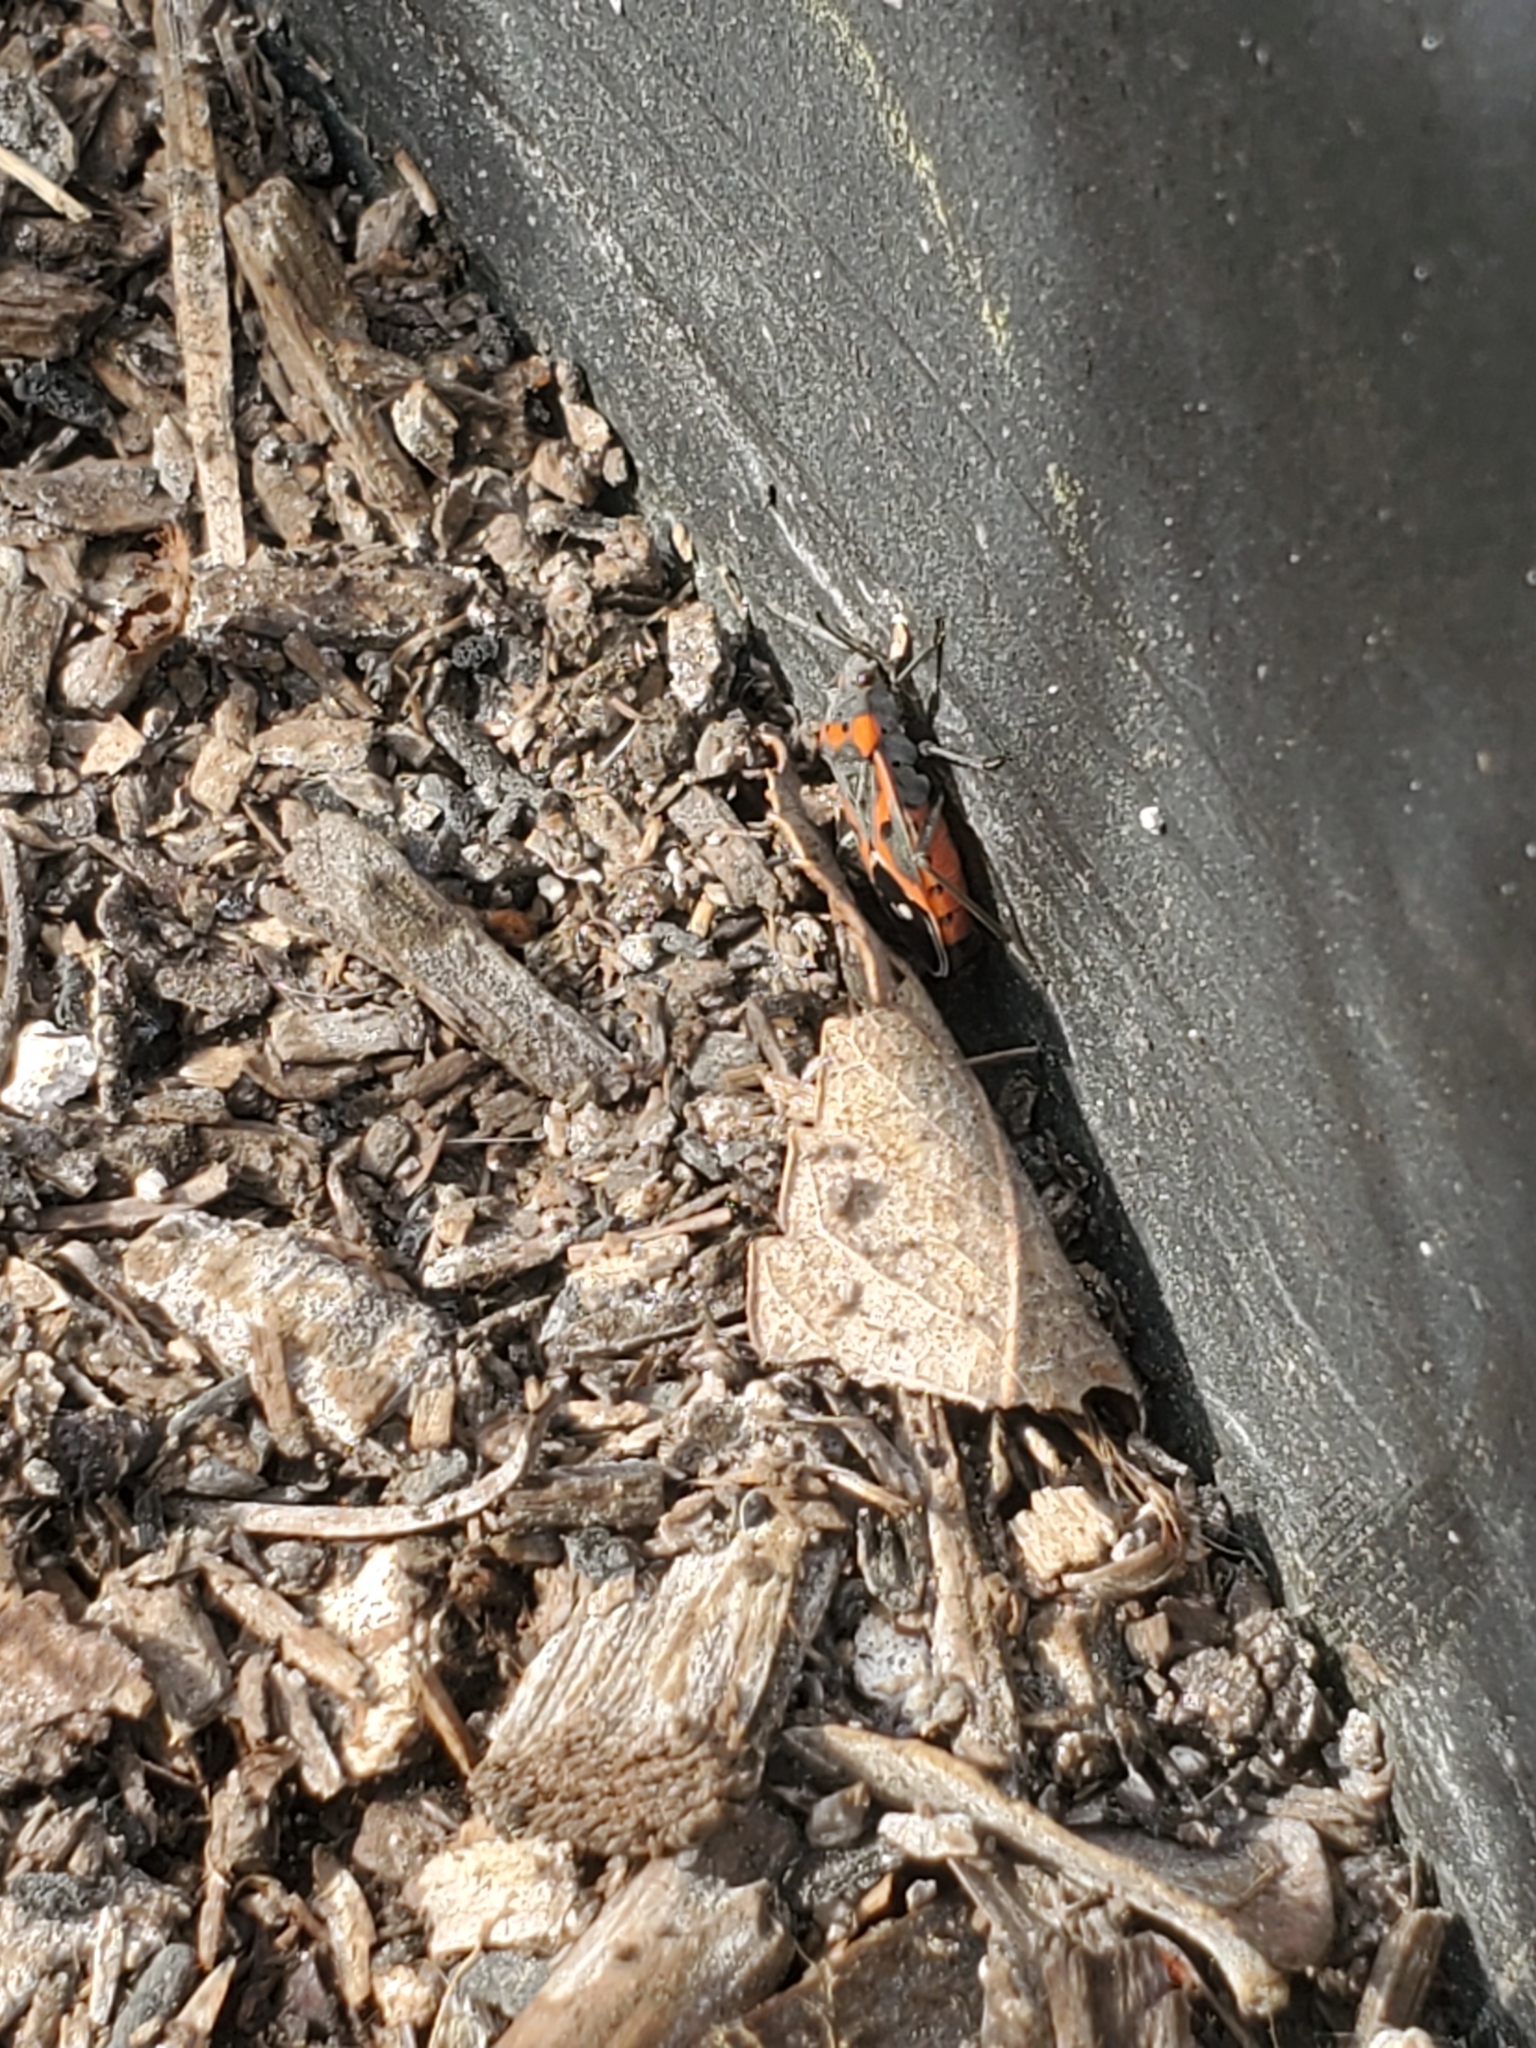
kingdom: Animalia
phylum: Arthropoda
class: Insecta
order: Hemiptera
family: Lygaeidae
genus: Lygaeus
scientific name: Lygaeus kalmii
